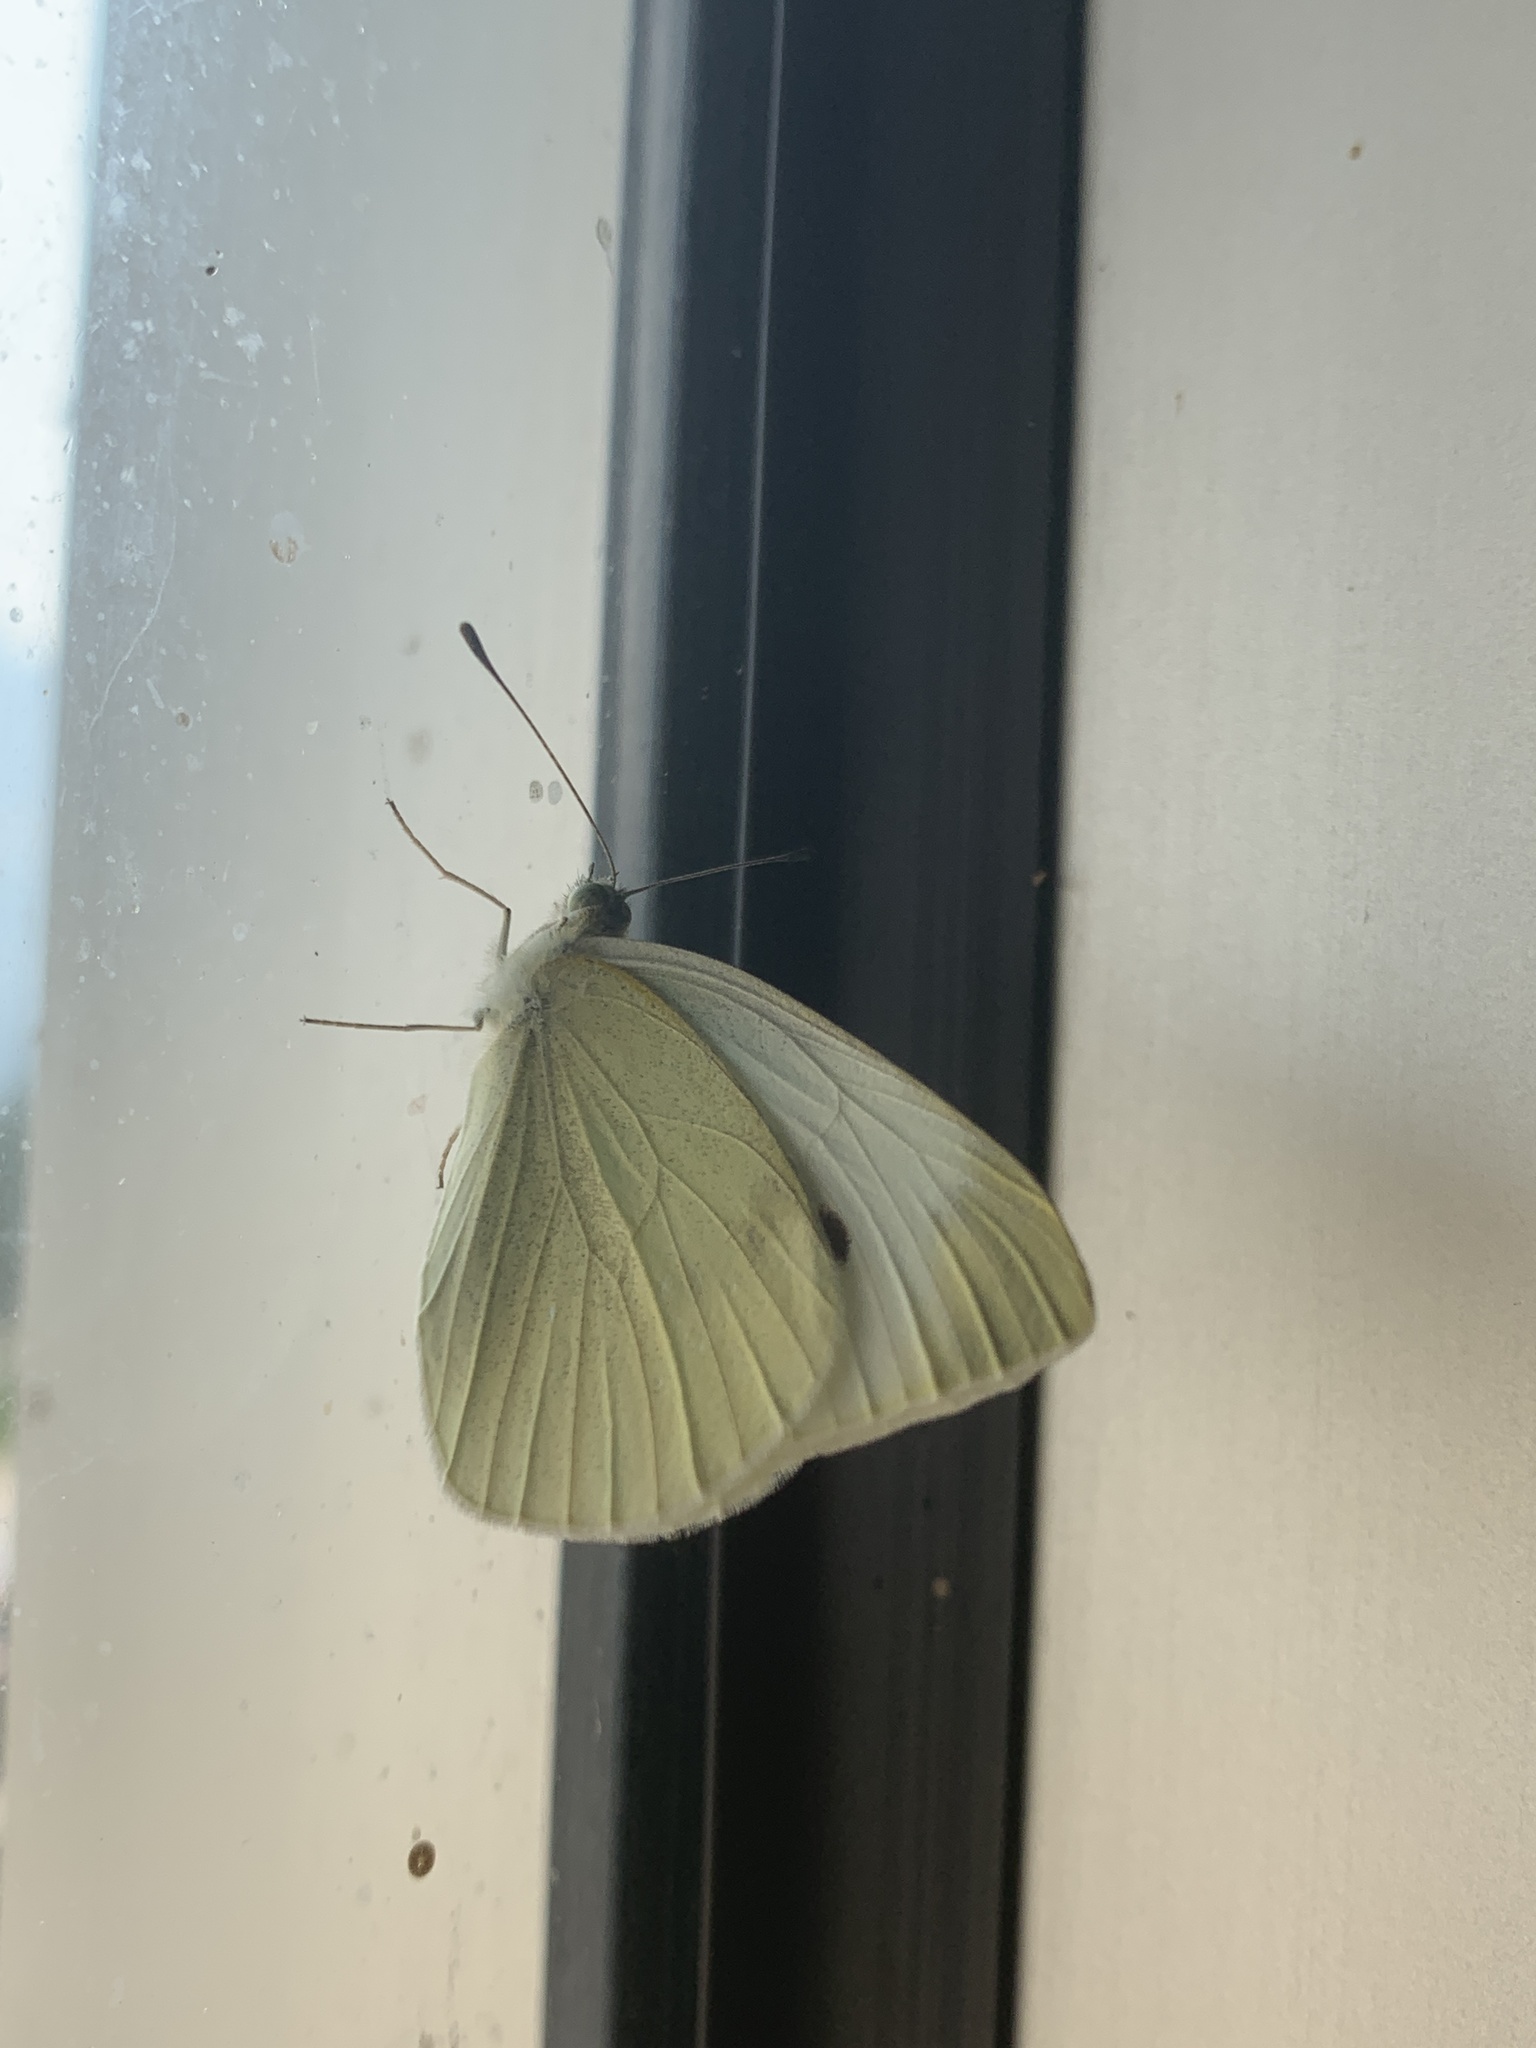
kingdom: Animalia
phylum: Arthropoda
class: Insecta
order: Lepidoptera
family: Pieridae
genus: Pieris
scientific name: Pieris rapae
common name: Small white
